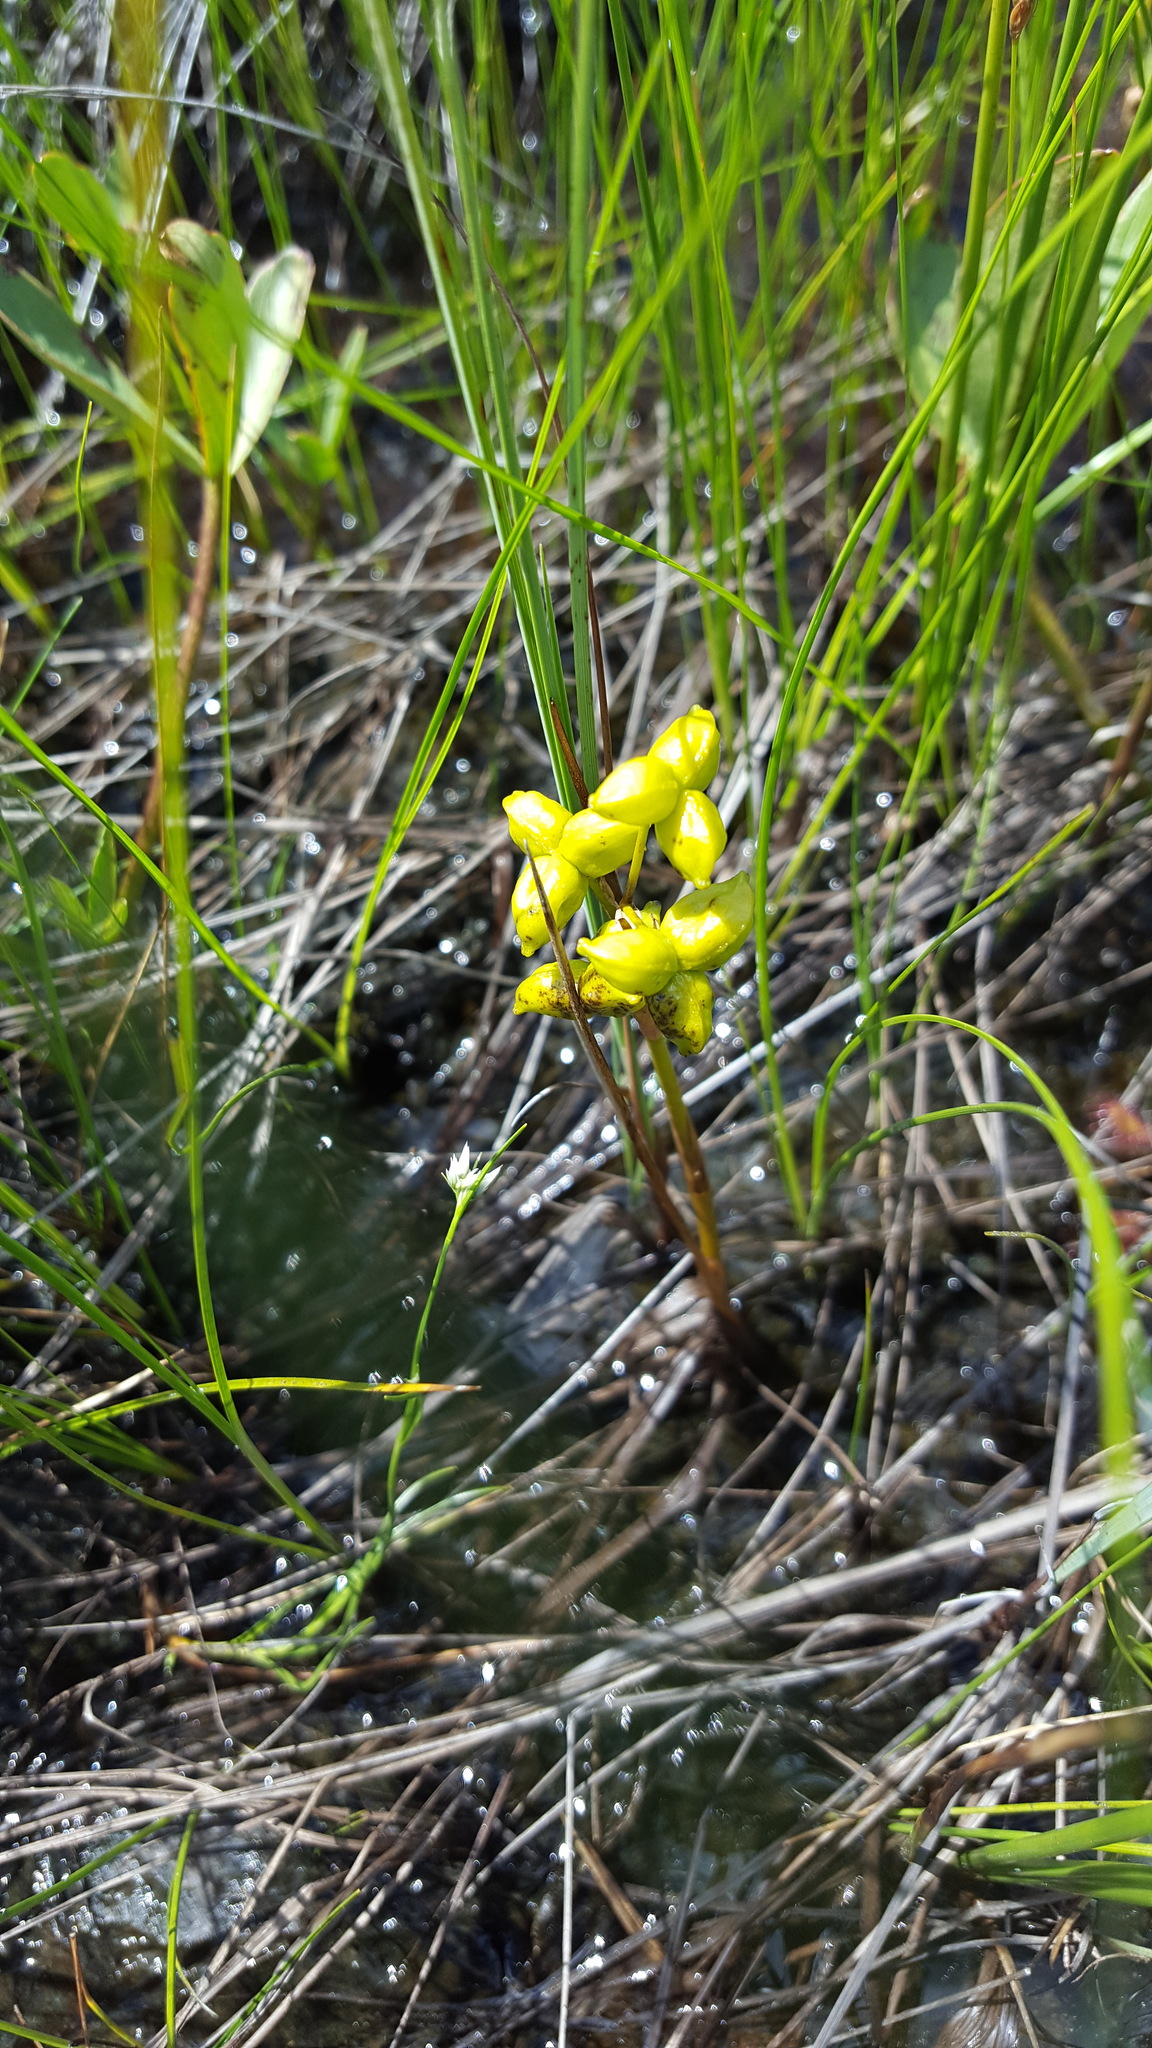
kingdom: Plantae
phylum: Tracheophyta
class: Liliopsida
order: Alismatales
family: Scheuchzeriaceae
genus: Scheuchzeria
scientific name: Scheuchzeria palustris
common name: Rannoch-rush
